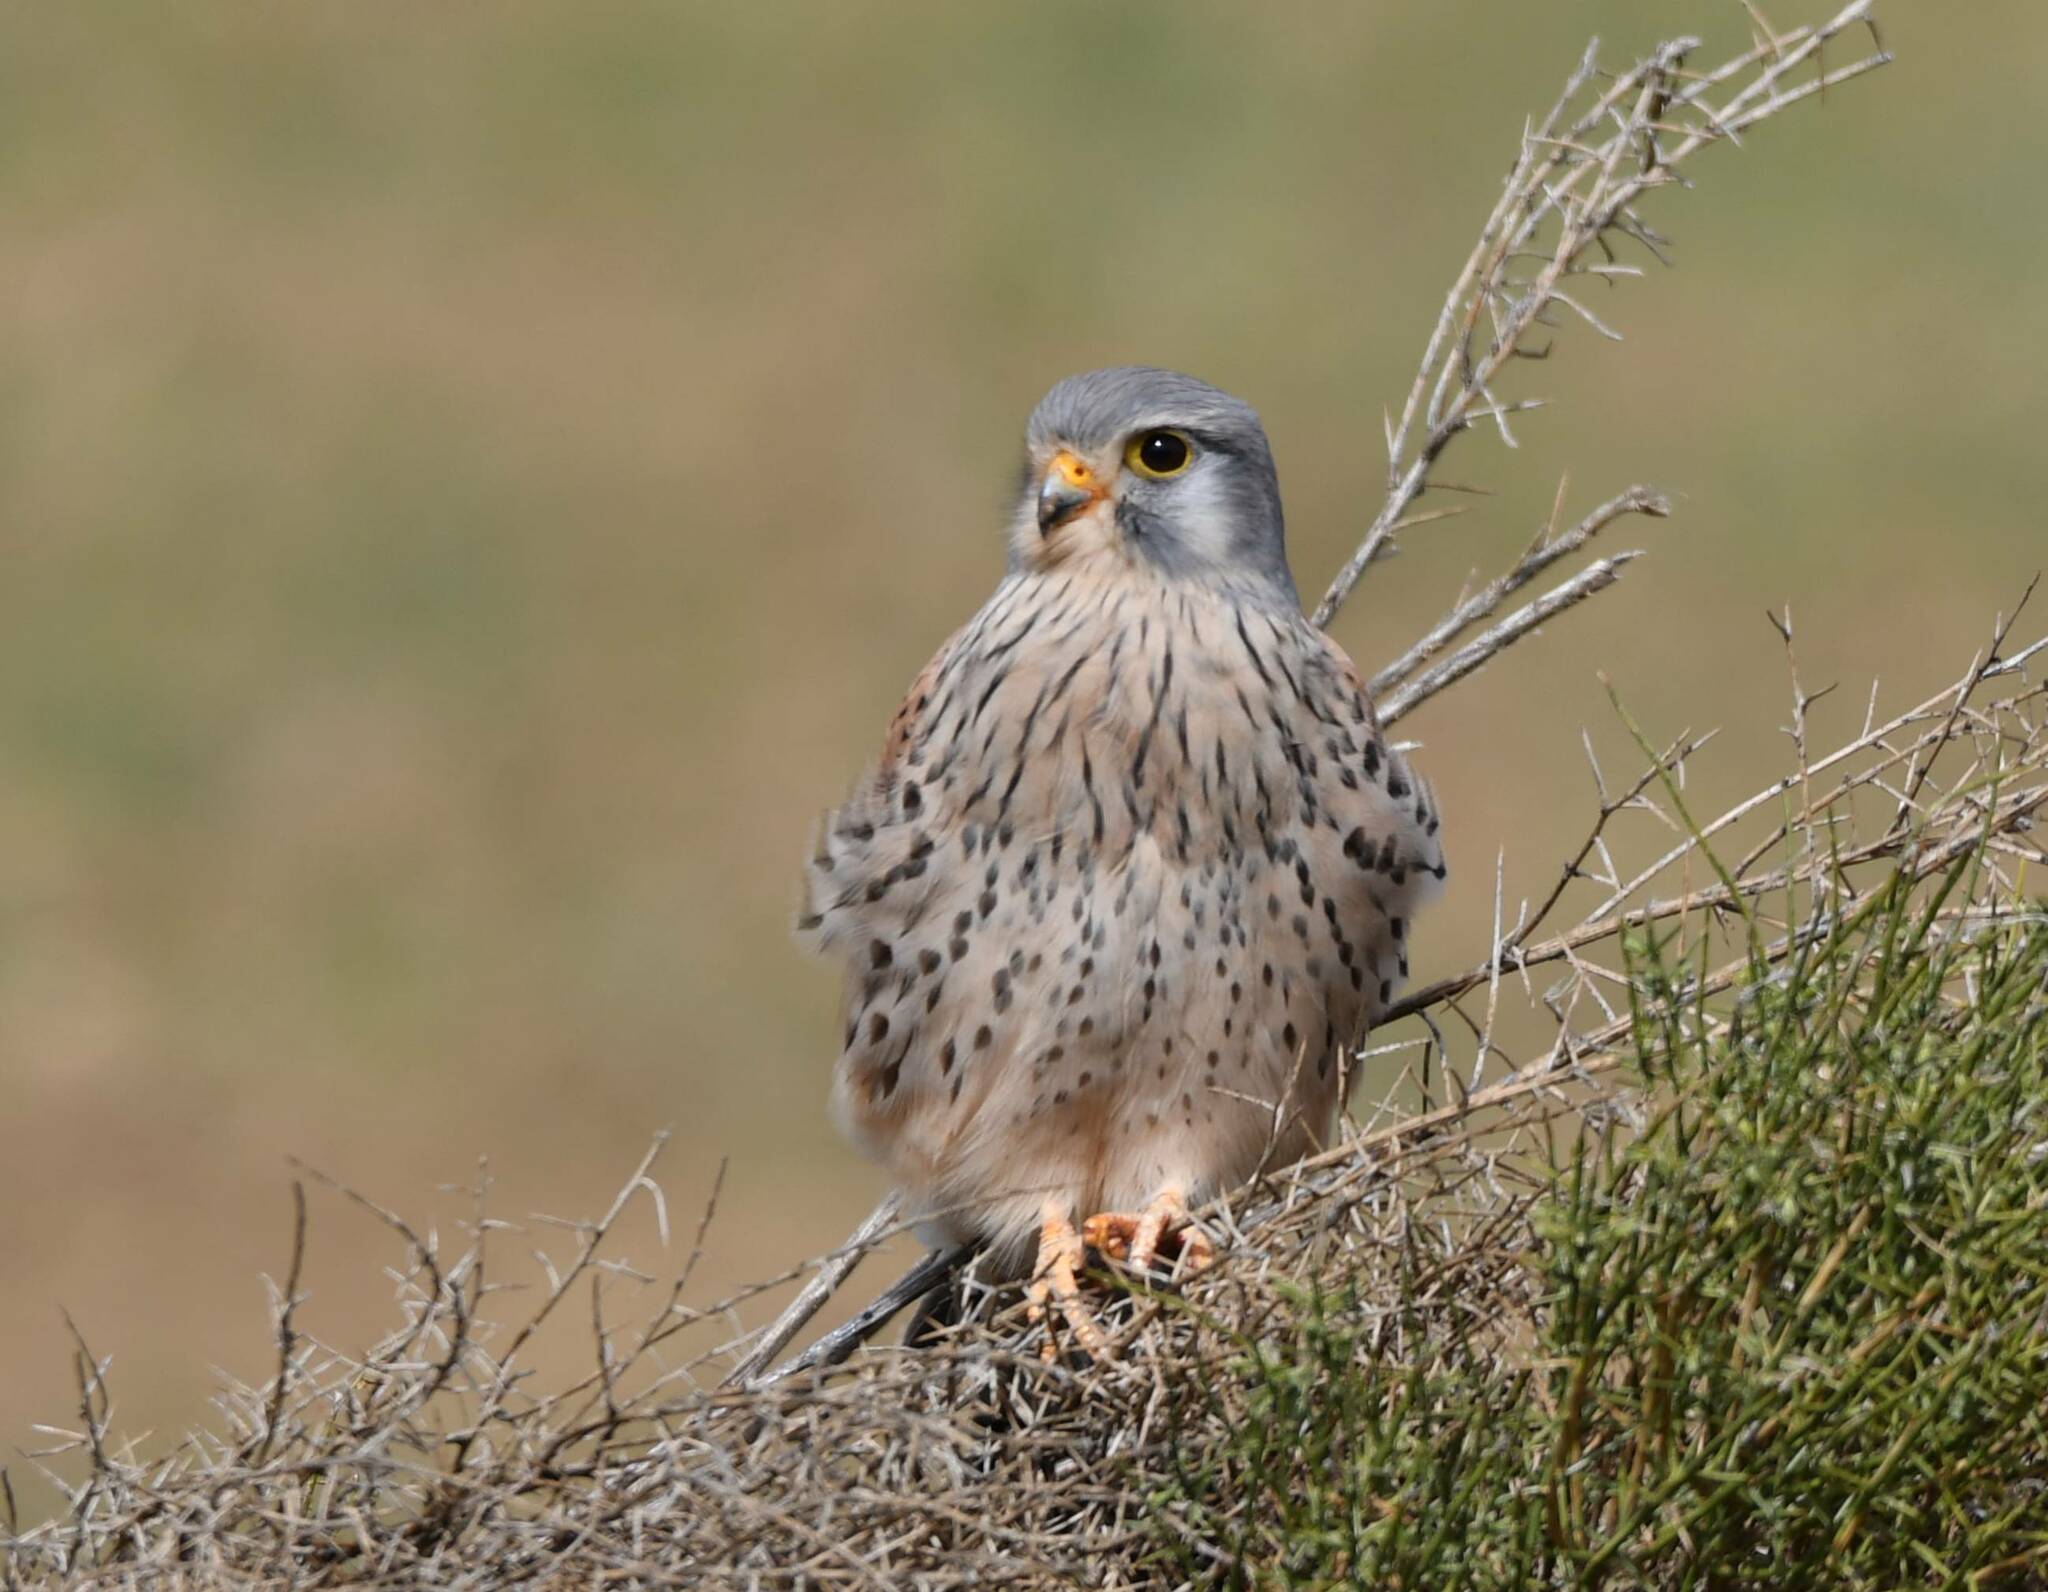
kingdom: Animalia
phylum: Chordata
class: Aves
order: Falconiformes
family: Falconidae
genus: Falco
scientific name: Falco tinnunculus
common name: Common kestrel
